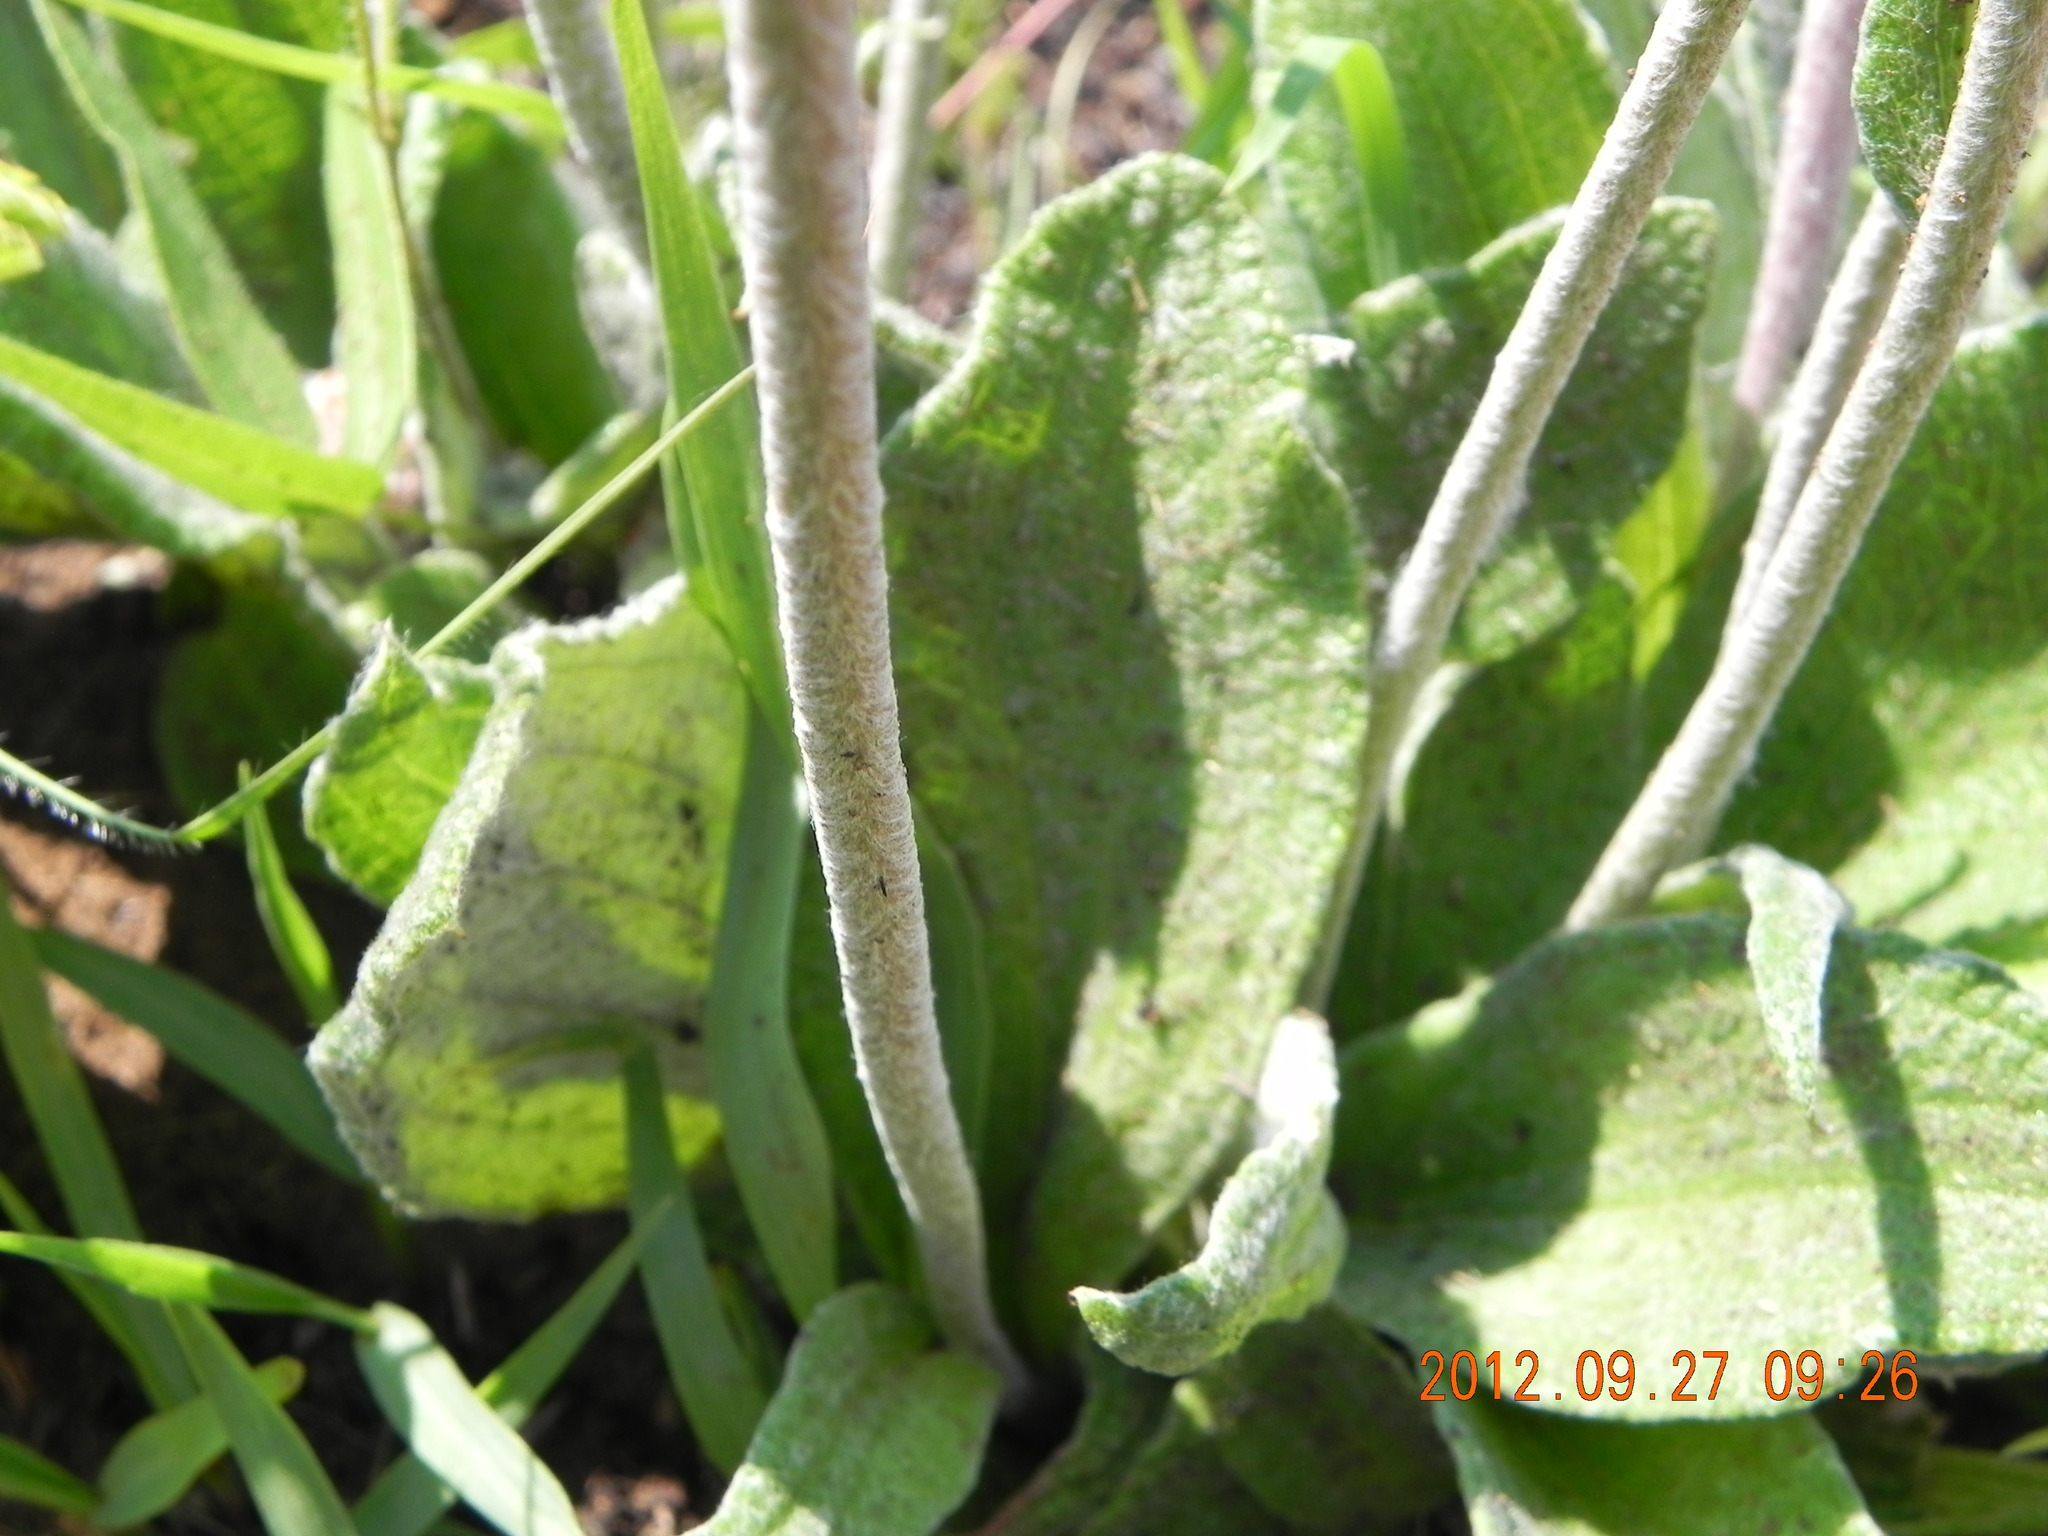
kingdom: Plantae
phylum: Tracheophyta
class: Magnoliopsida
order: Asterales
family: Asteraceae
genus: Helichrysum
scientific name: Helichrysum nudifolium
